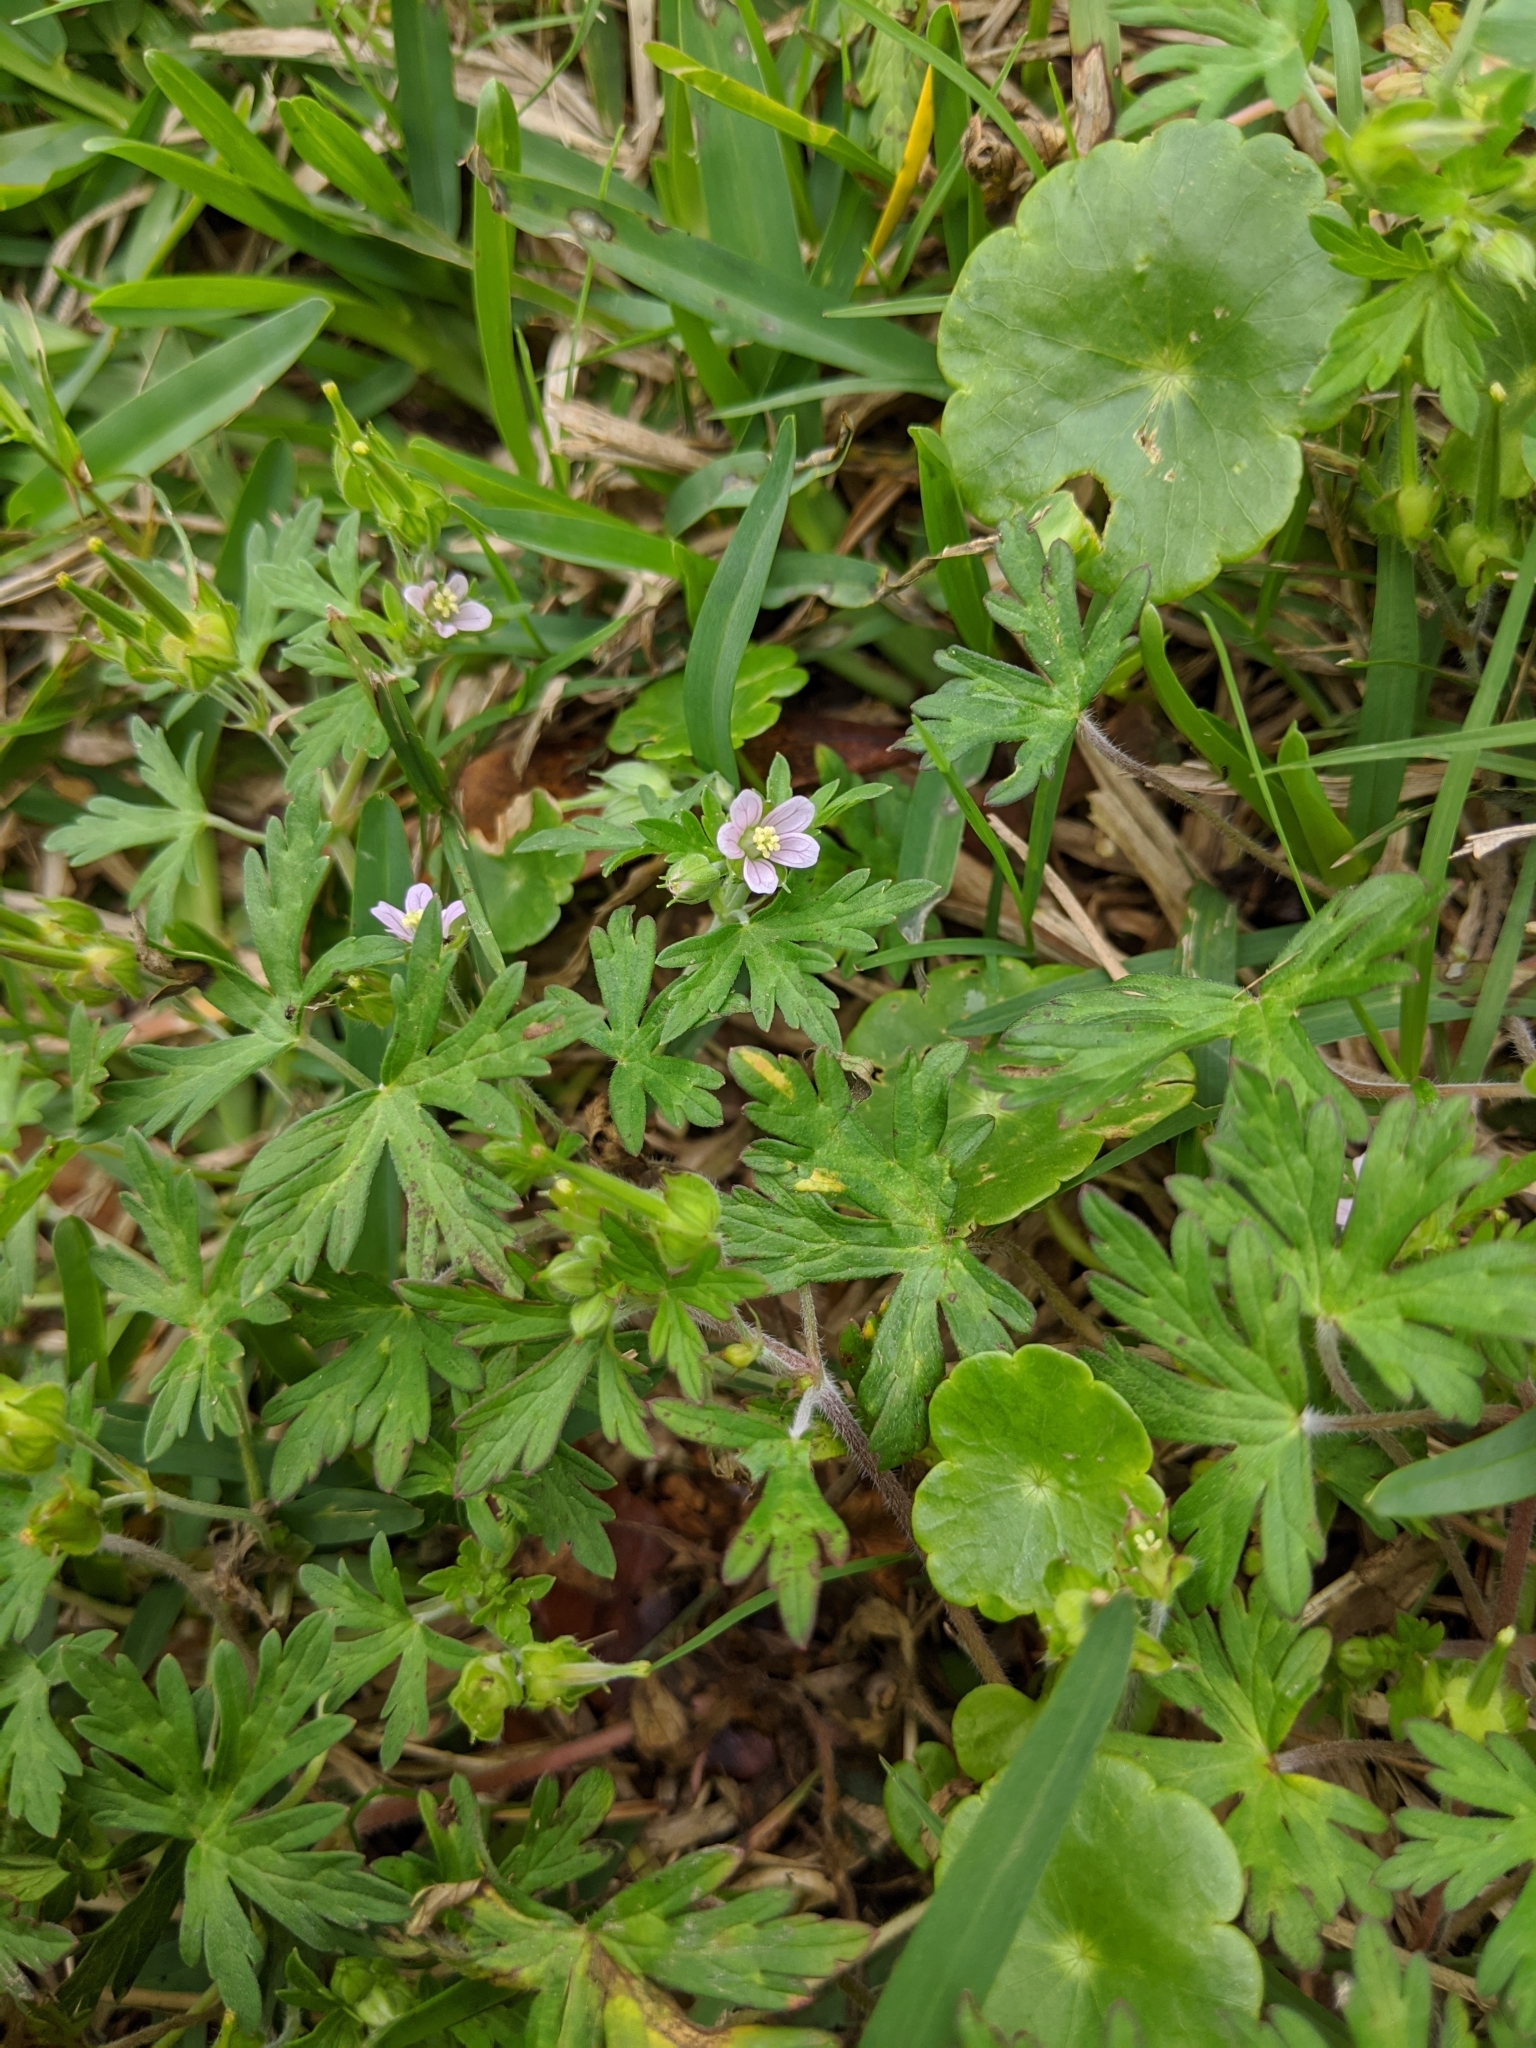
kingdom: Plantae
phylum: Tracheophyta
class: Magnoliopsida
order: Geraniales
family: Geraniaceae
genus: Geranium
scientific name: Geranium carolinianum
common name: Carolina crane's-bill
